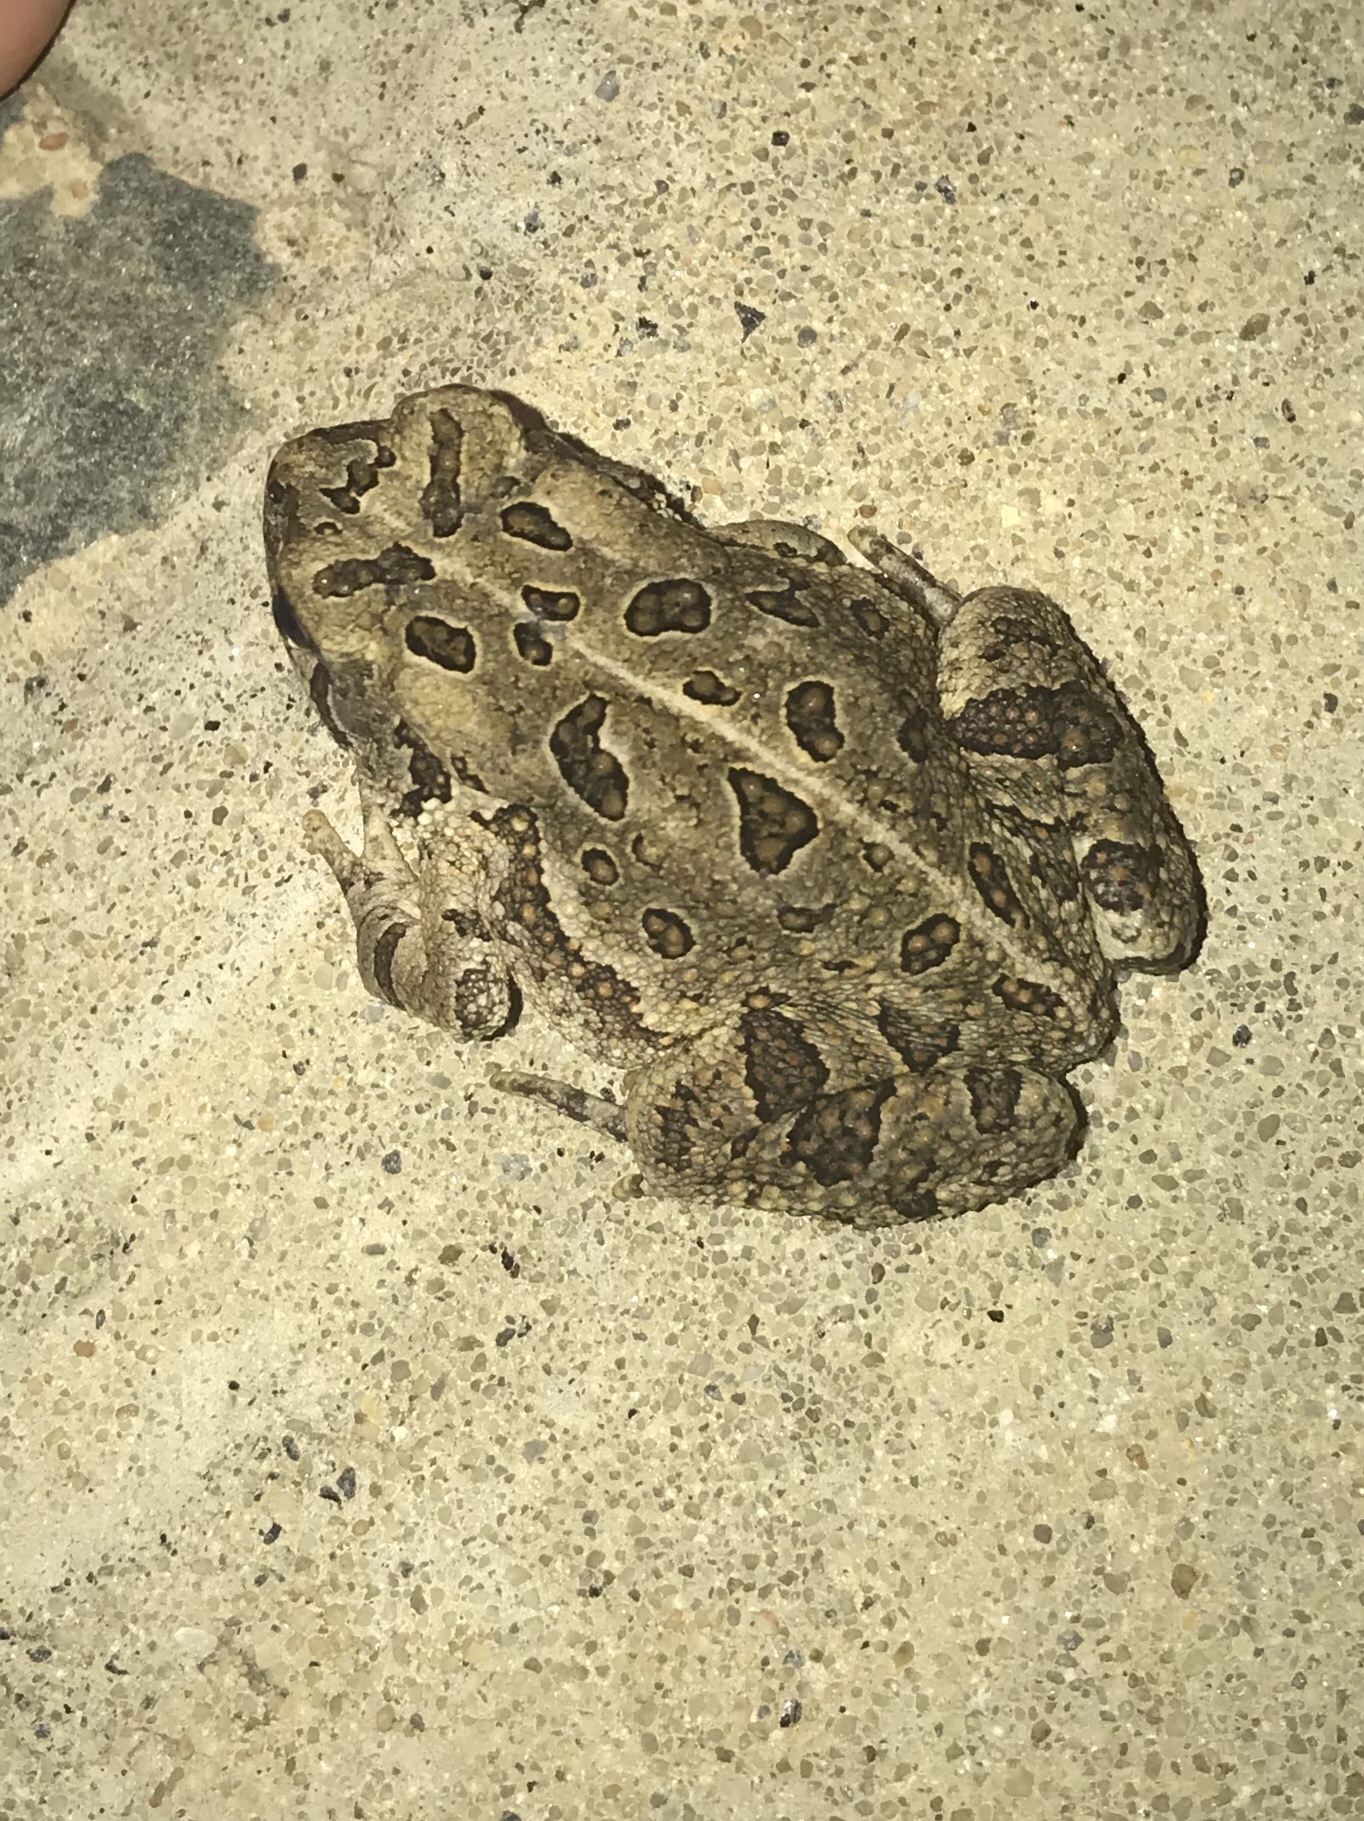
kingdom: Animalia
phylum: Chordata
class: Amphibia
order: Anura
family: Bufonidae
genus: Anaxyrus
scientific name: Anaxyrus fowleri
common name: Fowler's toad
